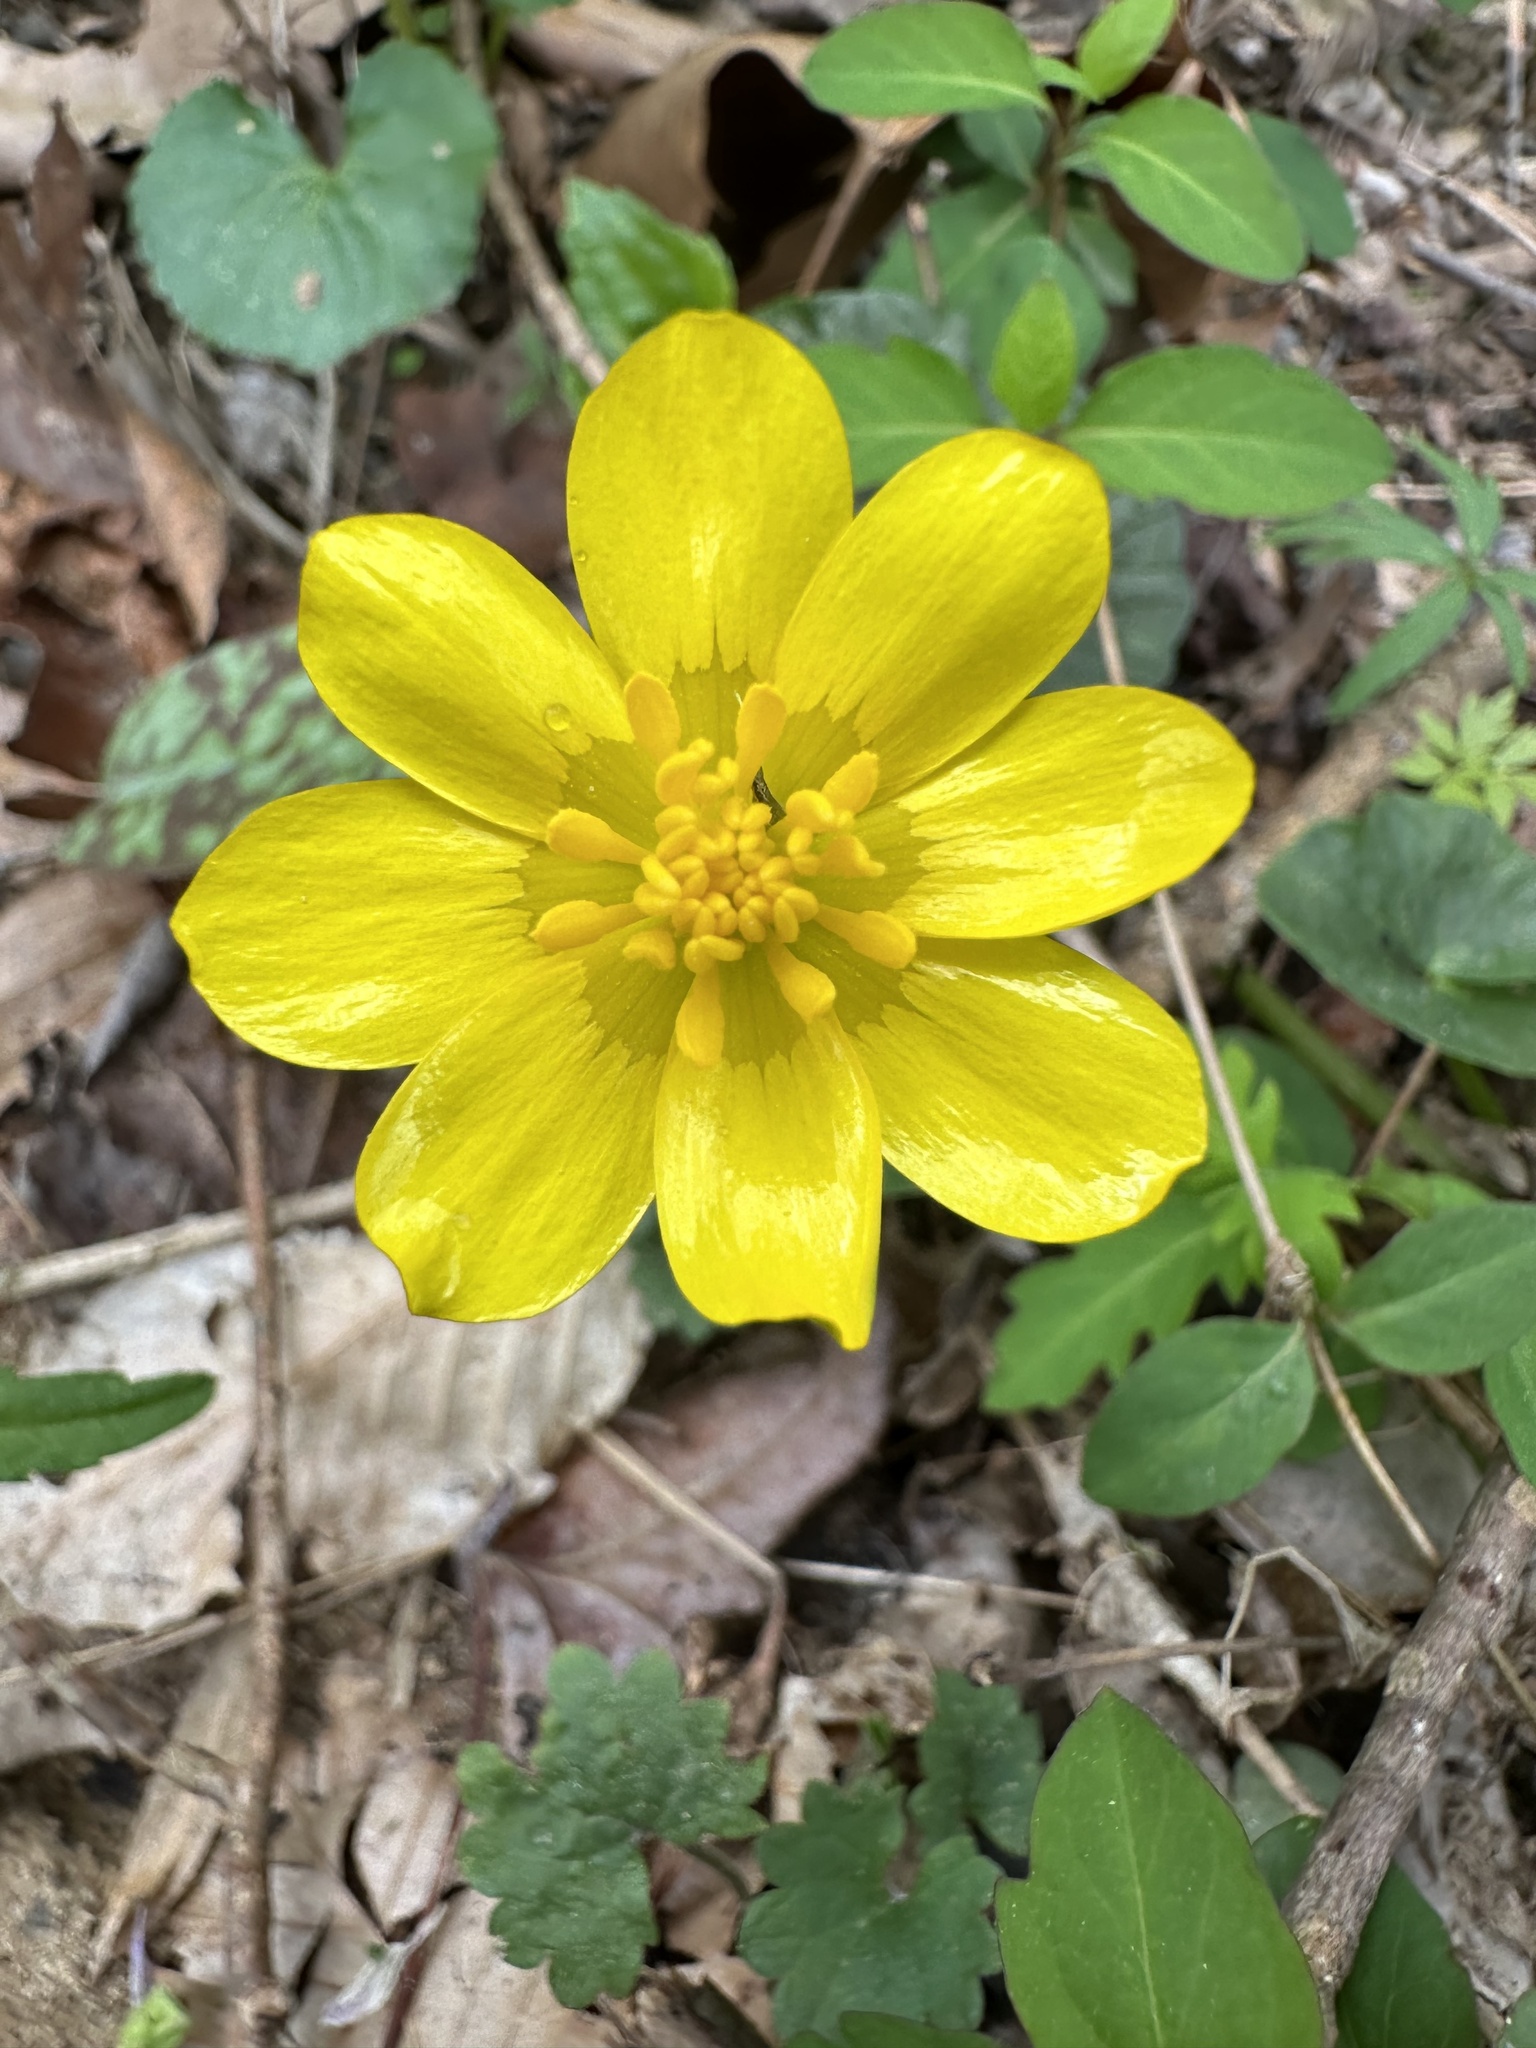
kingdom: Plantae
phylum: Tracheophyta
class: Magnoliopsida
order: Ranunculales
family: Ranunculaceae
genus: Ficaria
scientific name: Ficaria verna
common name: Lesser celandine
